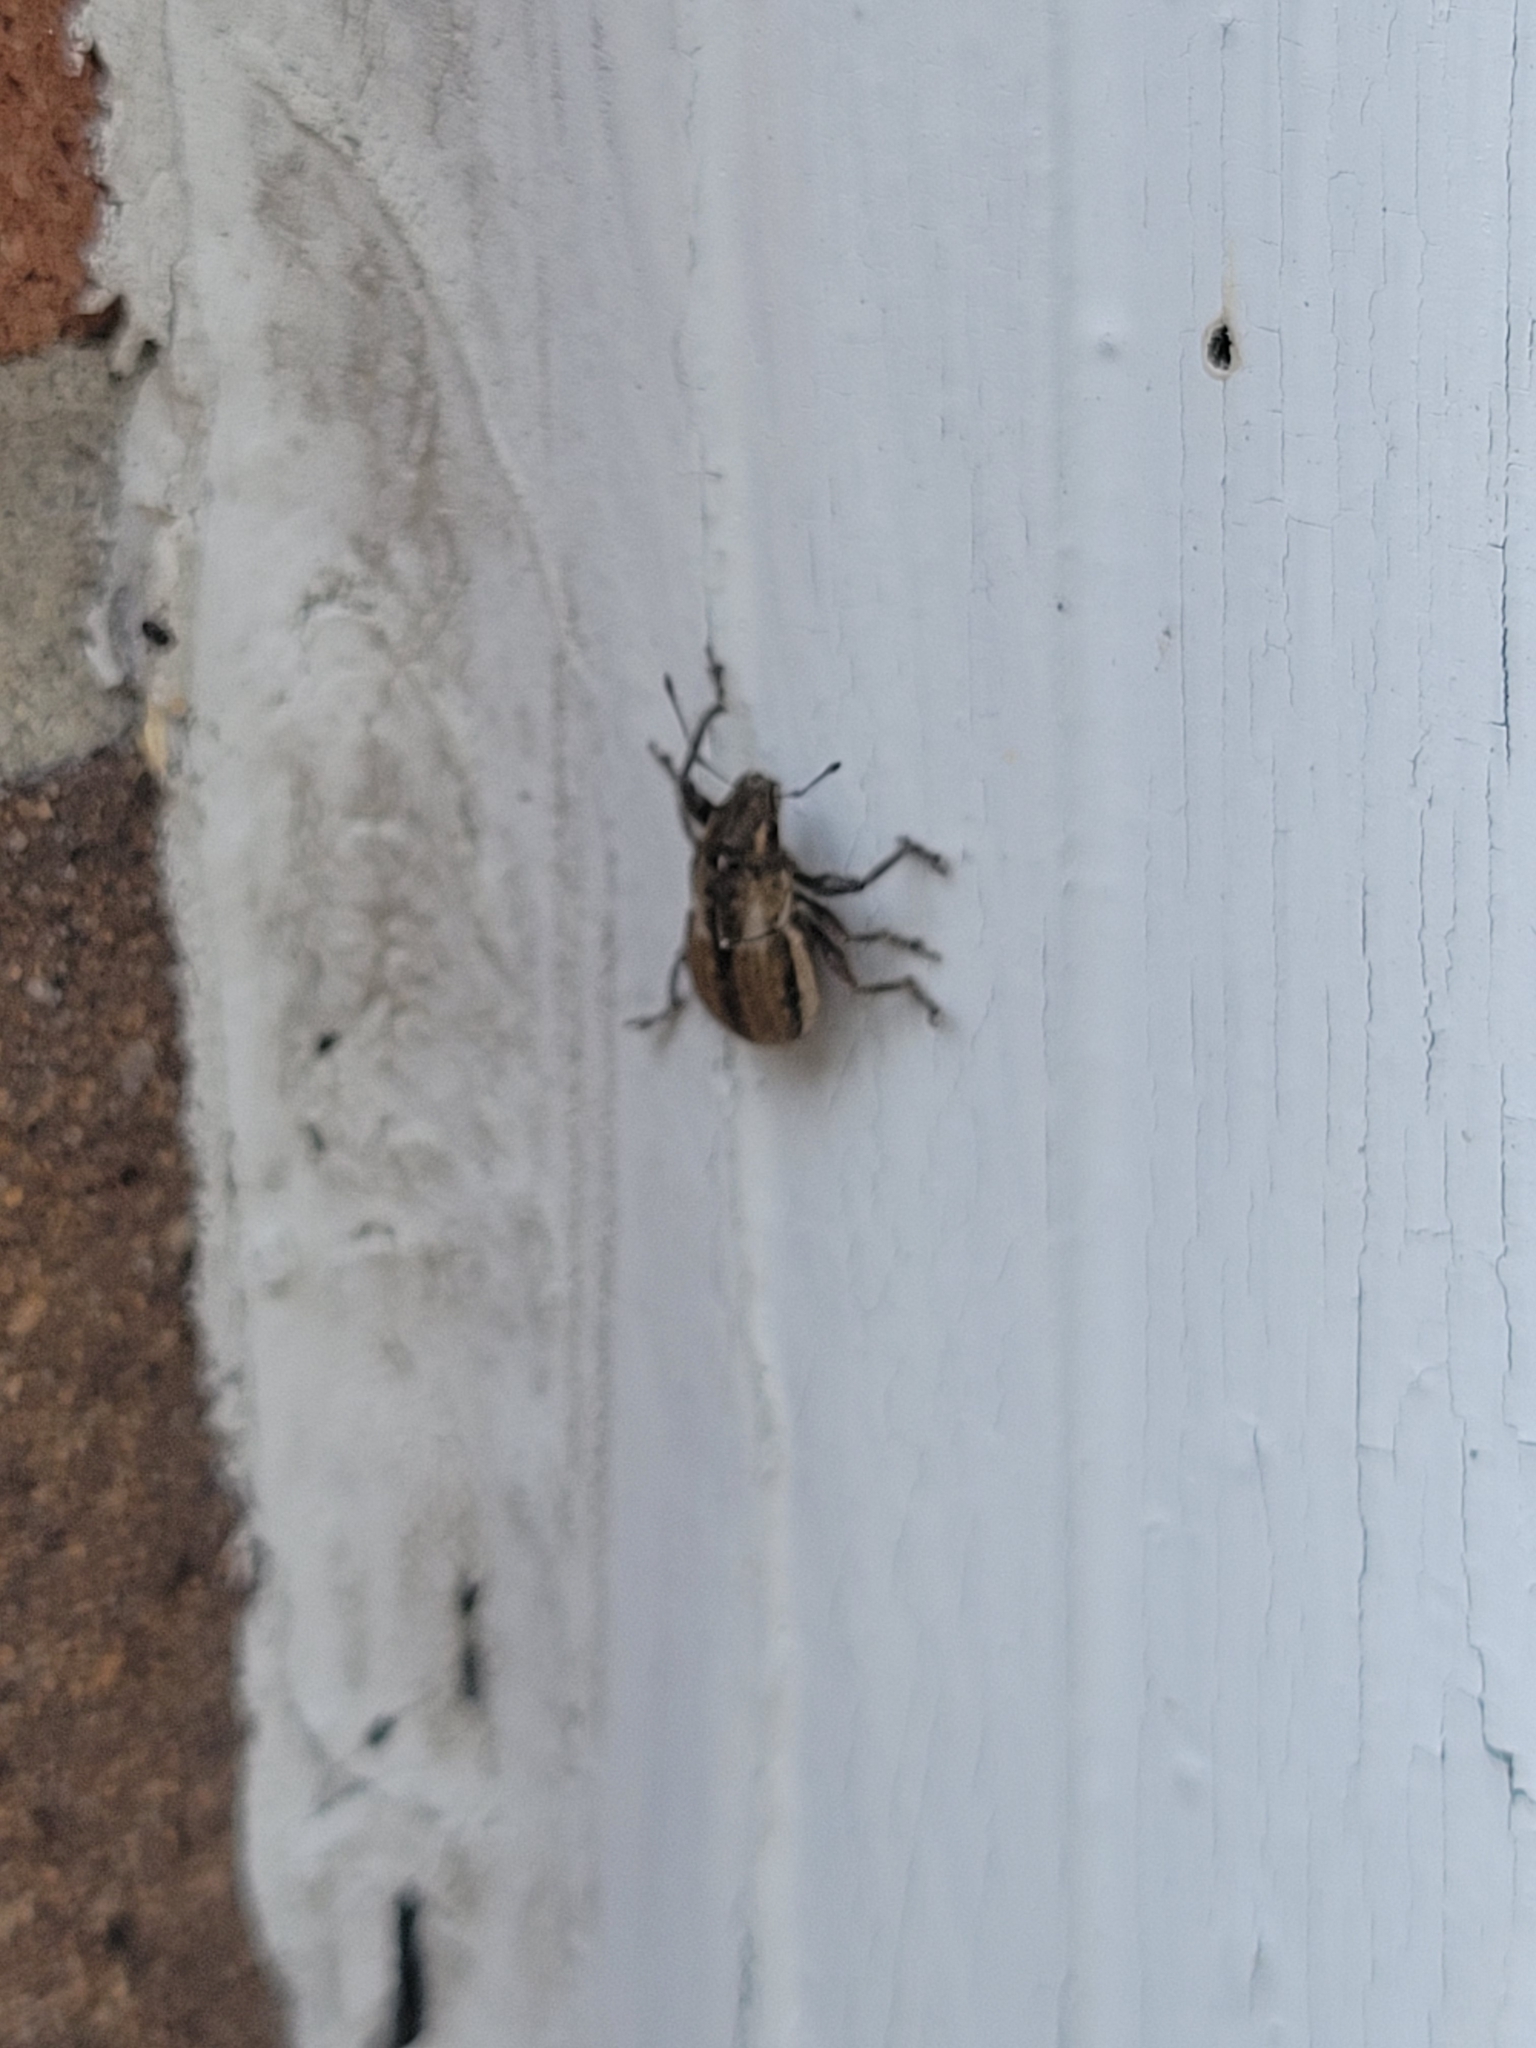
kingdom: Animalia
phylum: Arthropoda
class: Insecta
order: Coleoptera
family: Curculionidae
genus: Naupactus
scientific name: Naupactus peregrinus
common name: Whitefringed beetle
